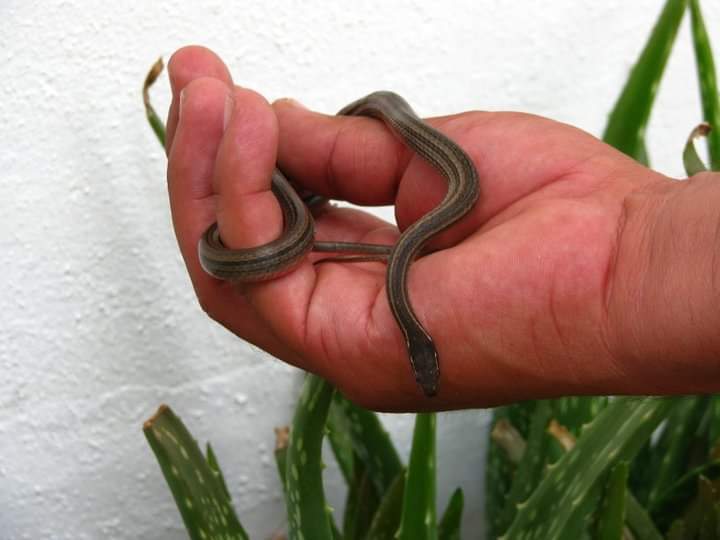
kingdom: Animalia
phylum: Chordata
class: Squamata
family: Colubridae
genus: Rhadinaea
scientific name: Rhadinaea hesperia
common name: Western graceful brown snake
